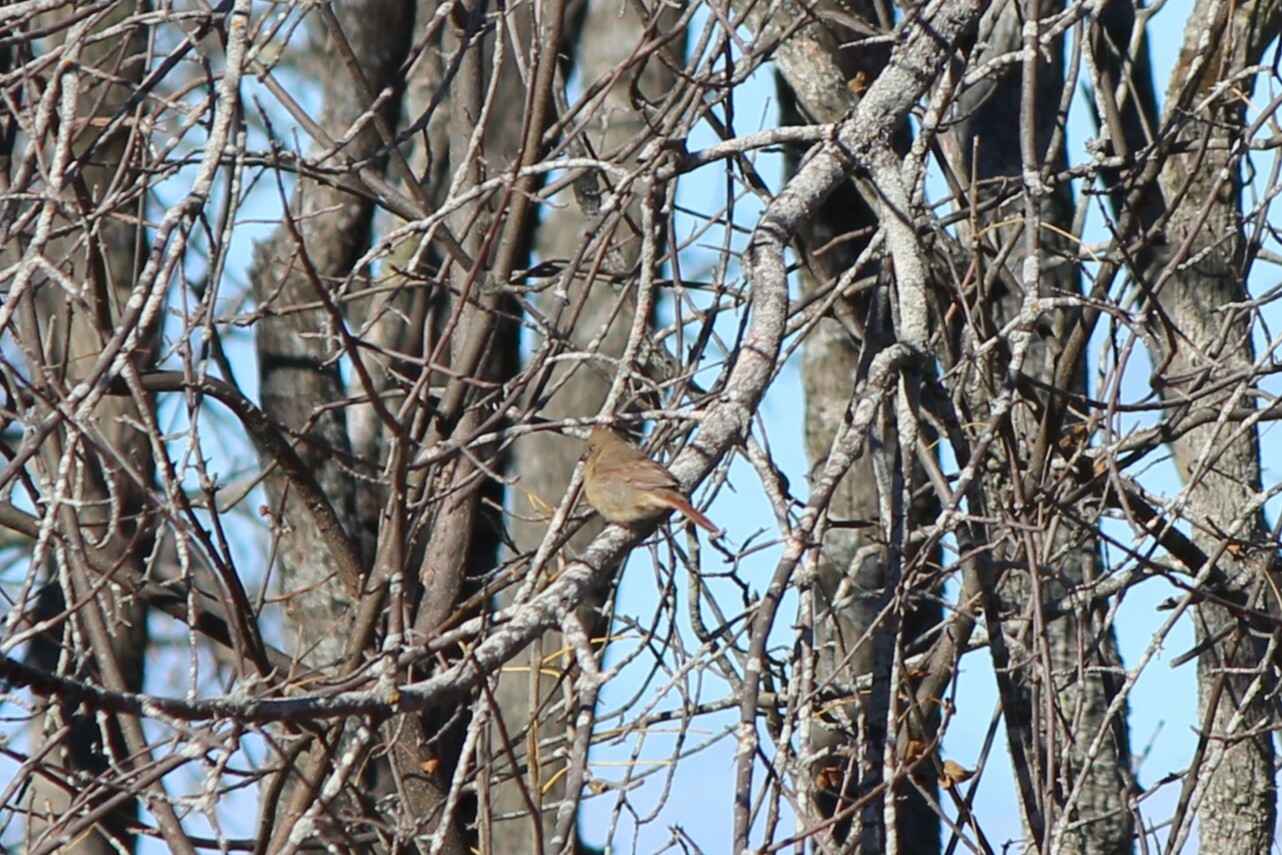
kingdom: Animalia
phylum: Chordata
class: Aves
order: Passeriformes
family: Cardinalidae
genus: Cardinalis
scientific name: Cardinalis cardinalis
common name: Northern cardinal
